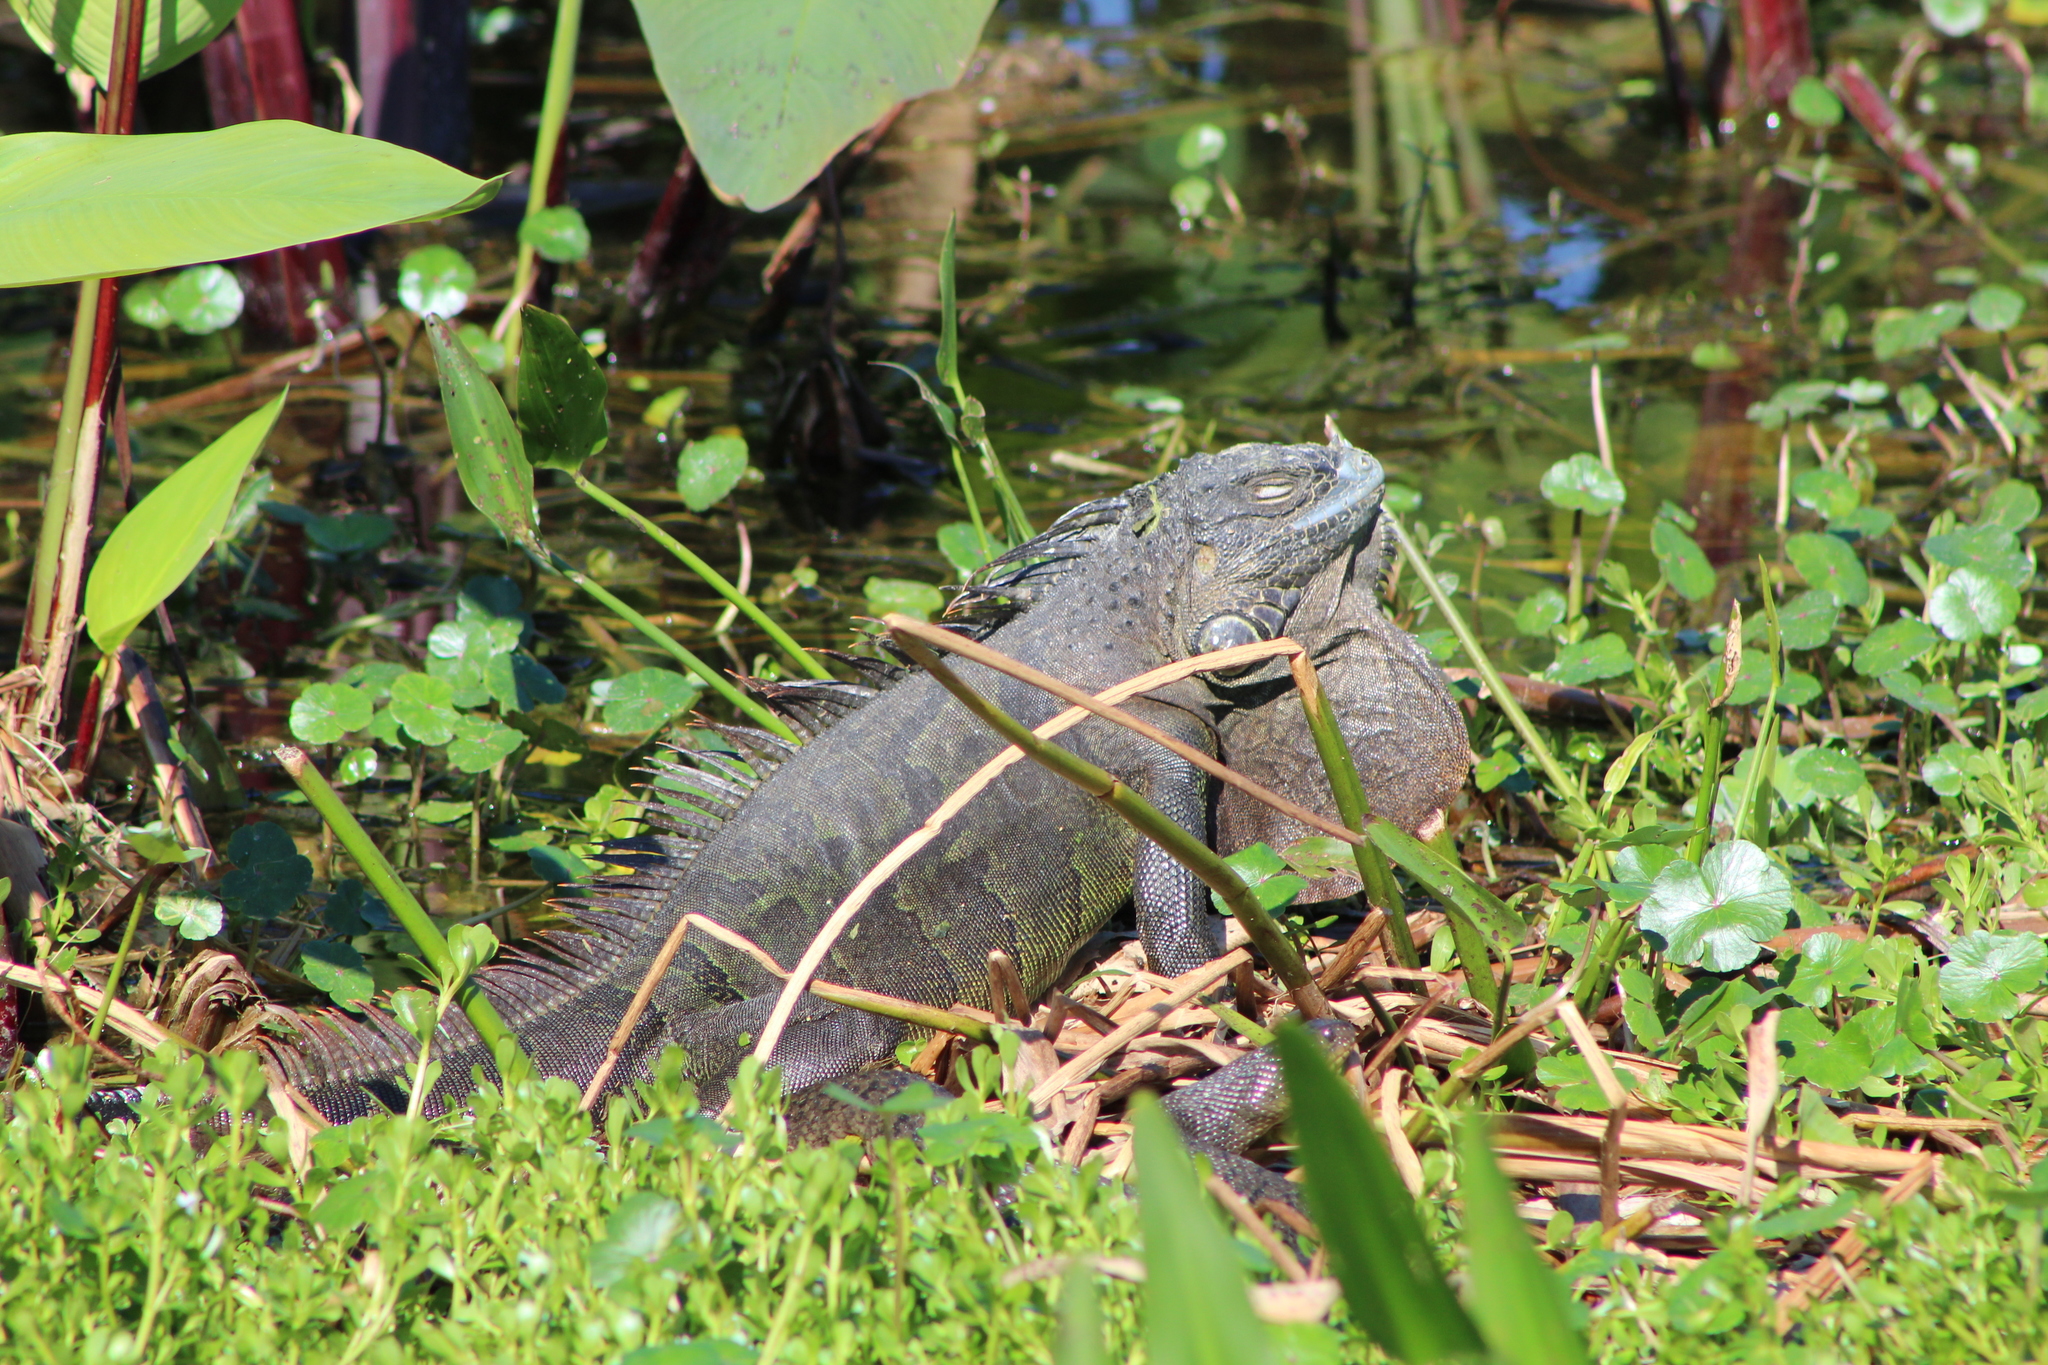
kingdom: Animalia
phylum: Chordata
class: Squamata
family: Iguanidae
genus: Iguana
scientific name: Iguana iguana
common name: Green iguana
